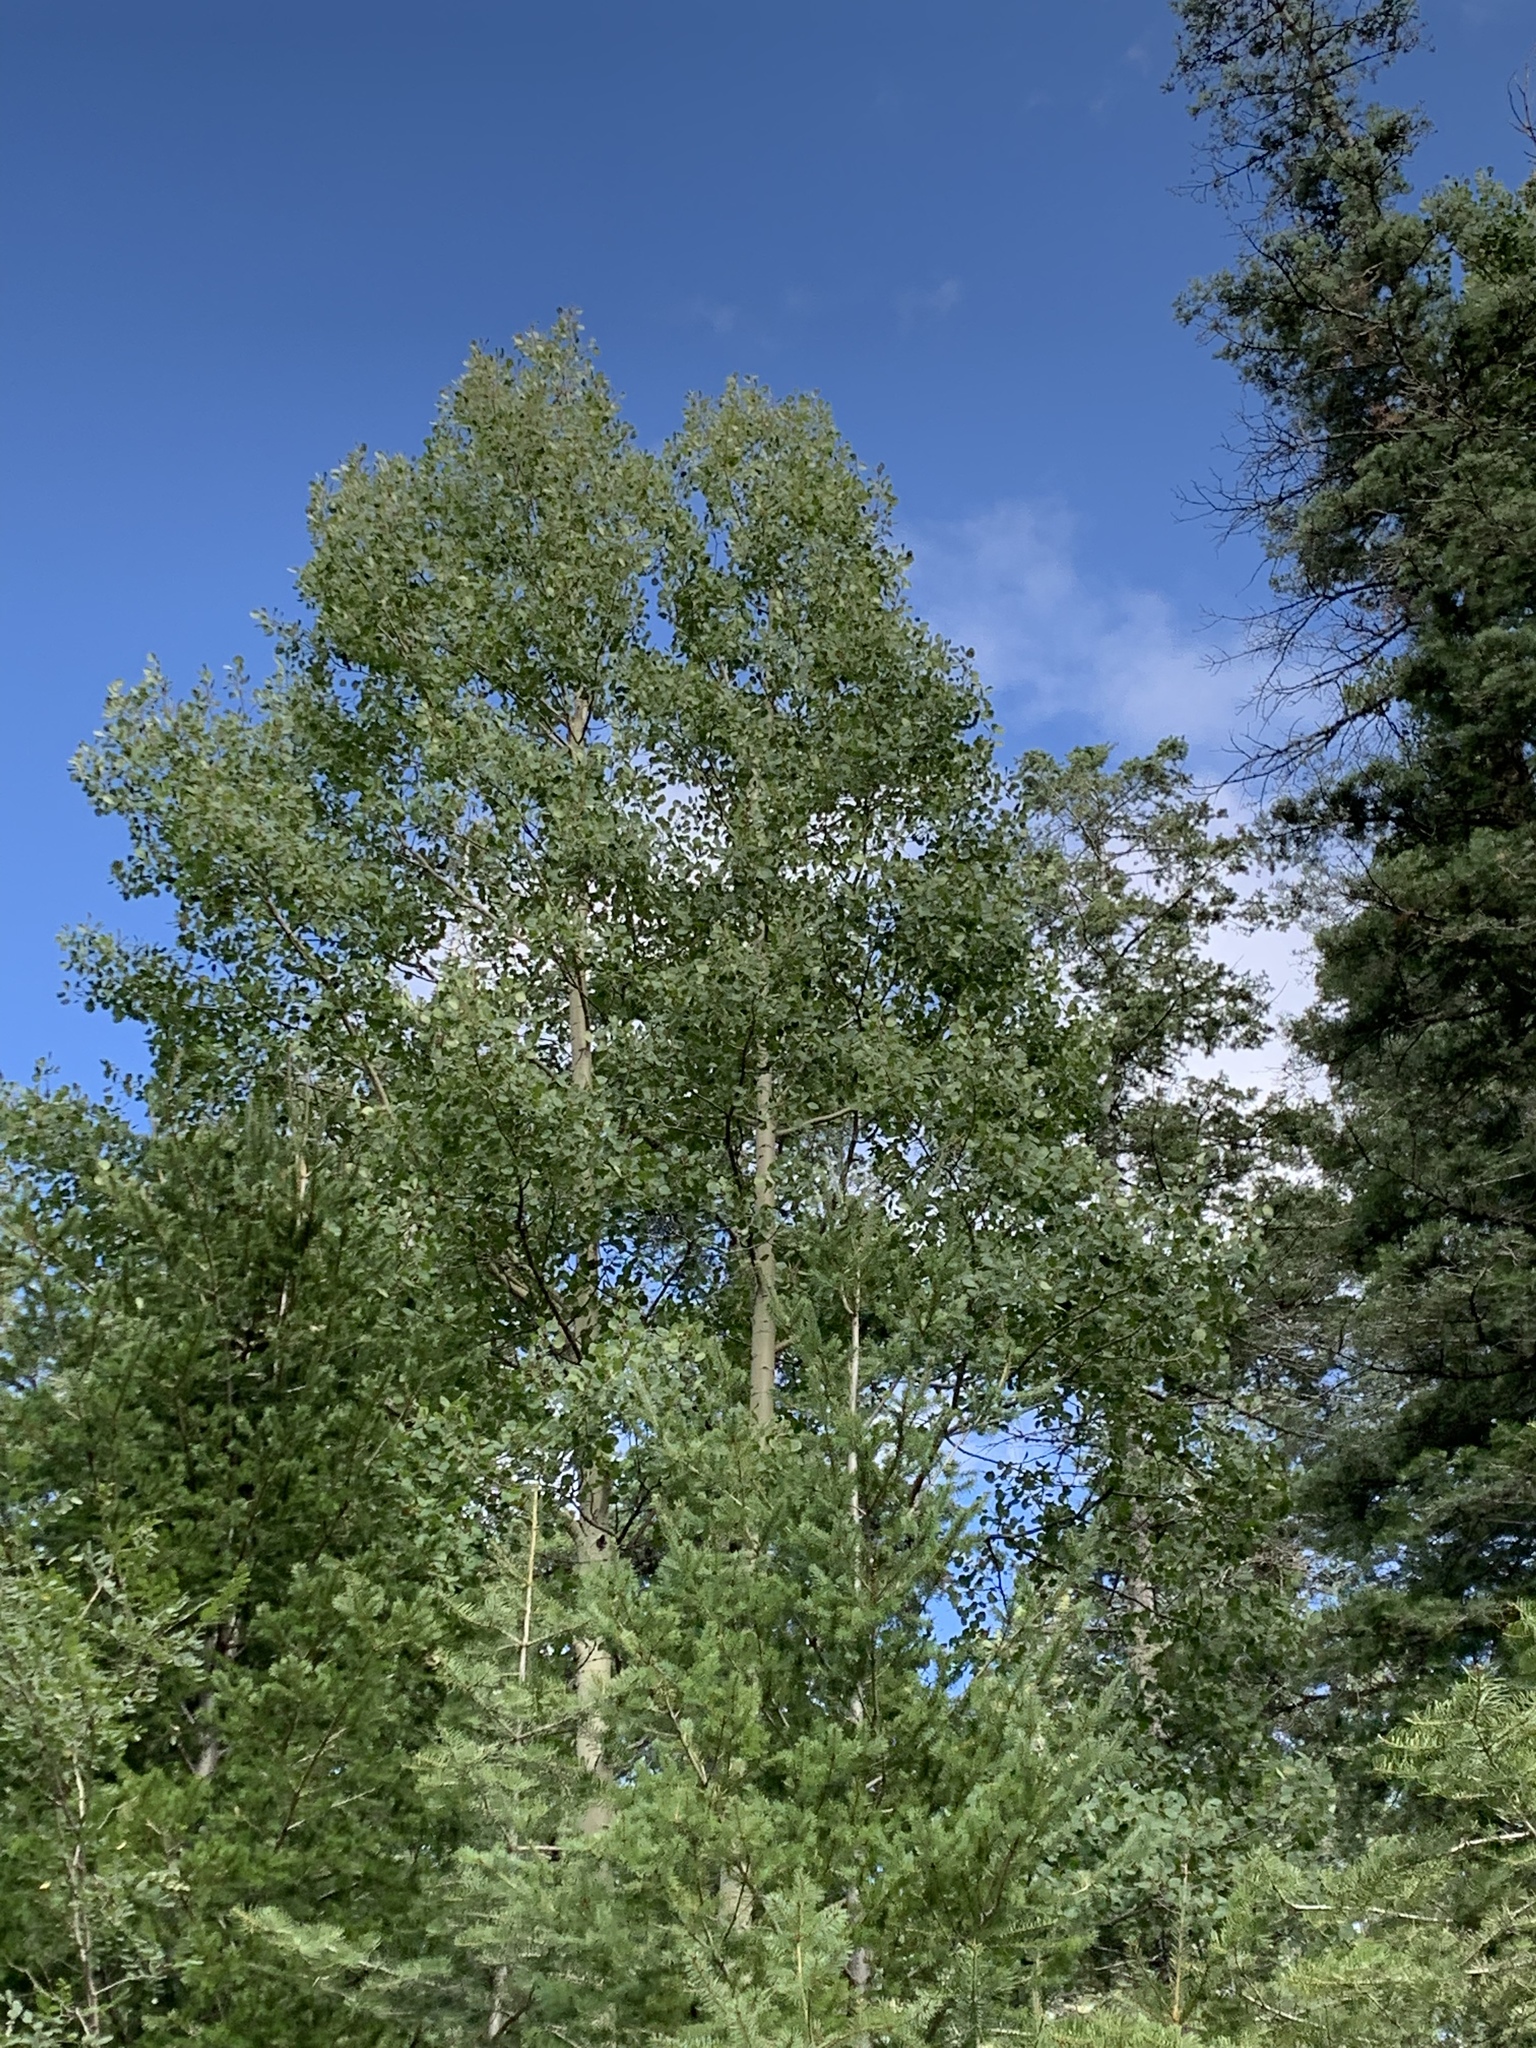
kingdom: Plantae
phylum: Tracheophyta
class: Magnoliopsida
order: Malpighiales
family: Salicaceae
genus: Populus
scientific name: Populus tremuloides
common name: Quaking aspen
